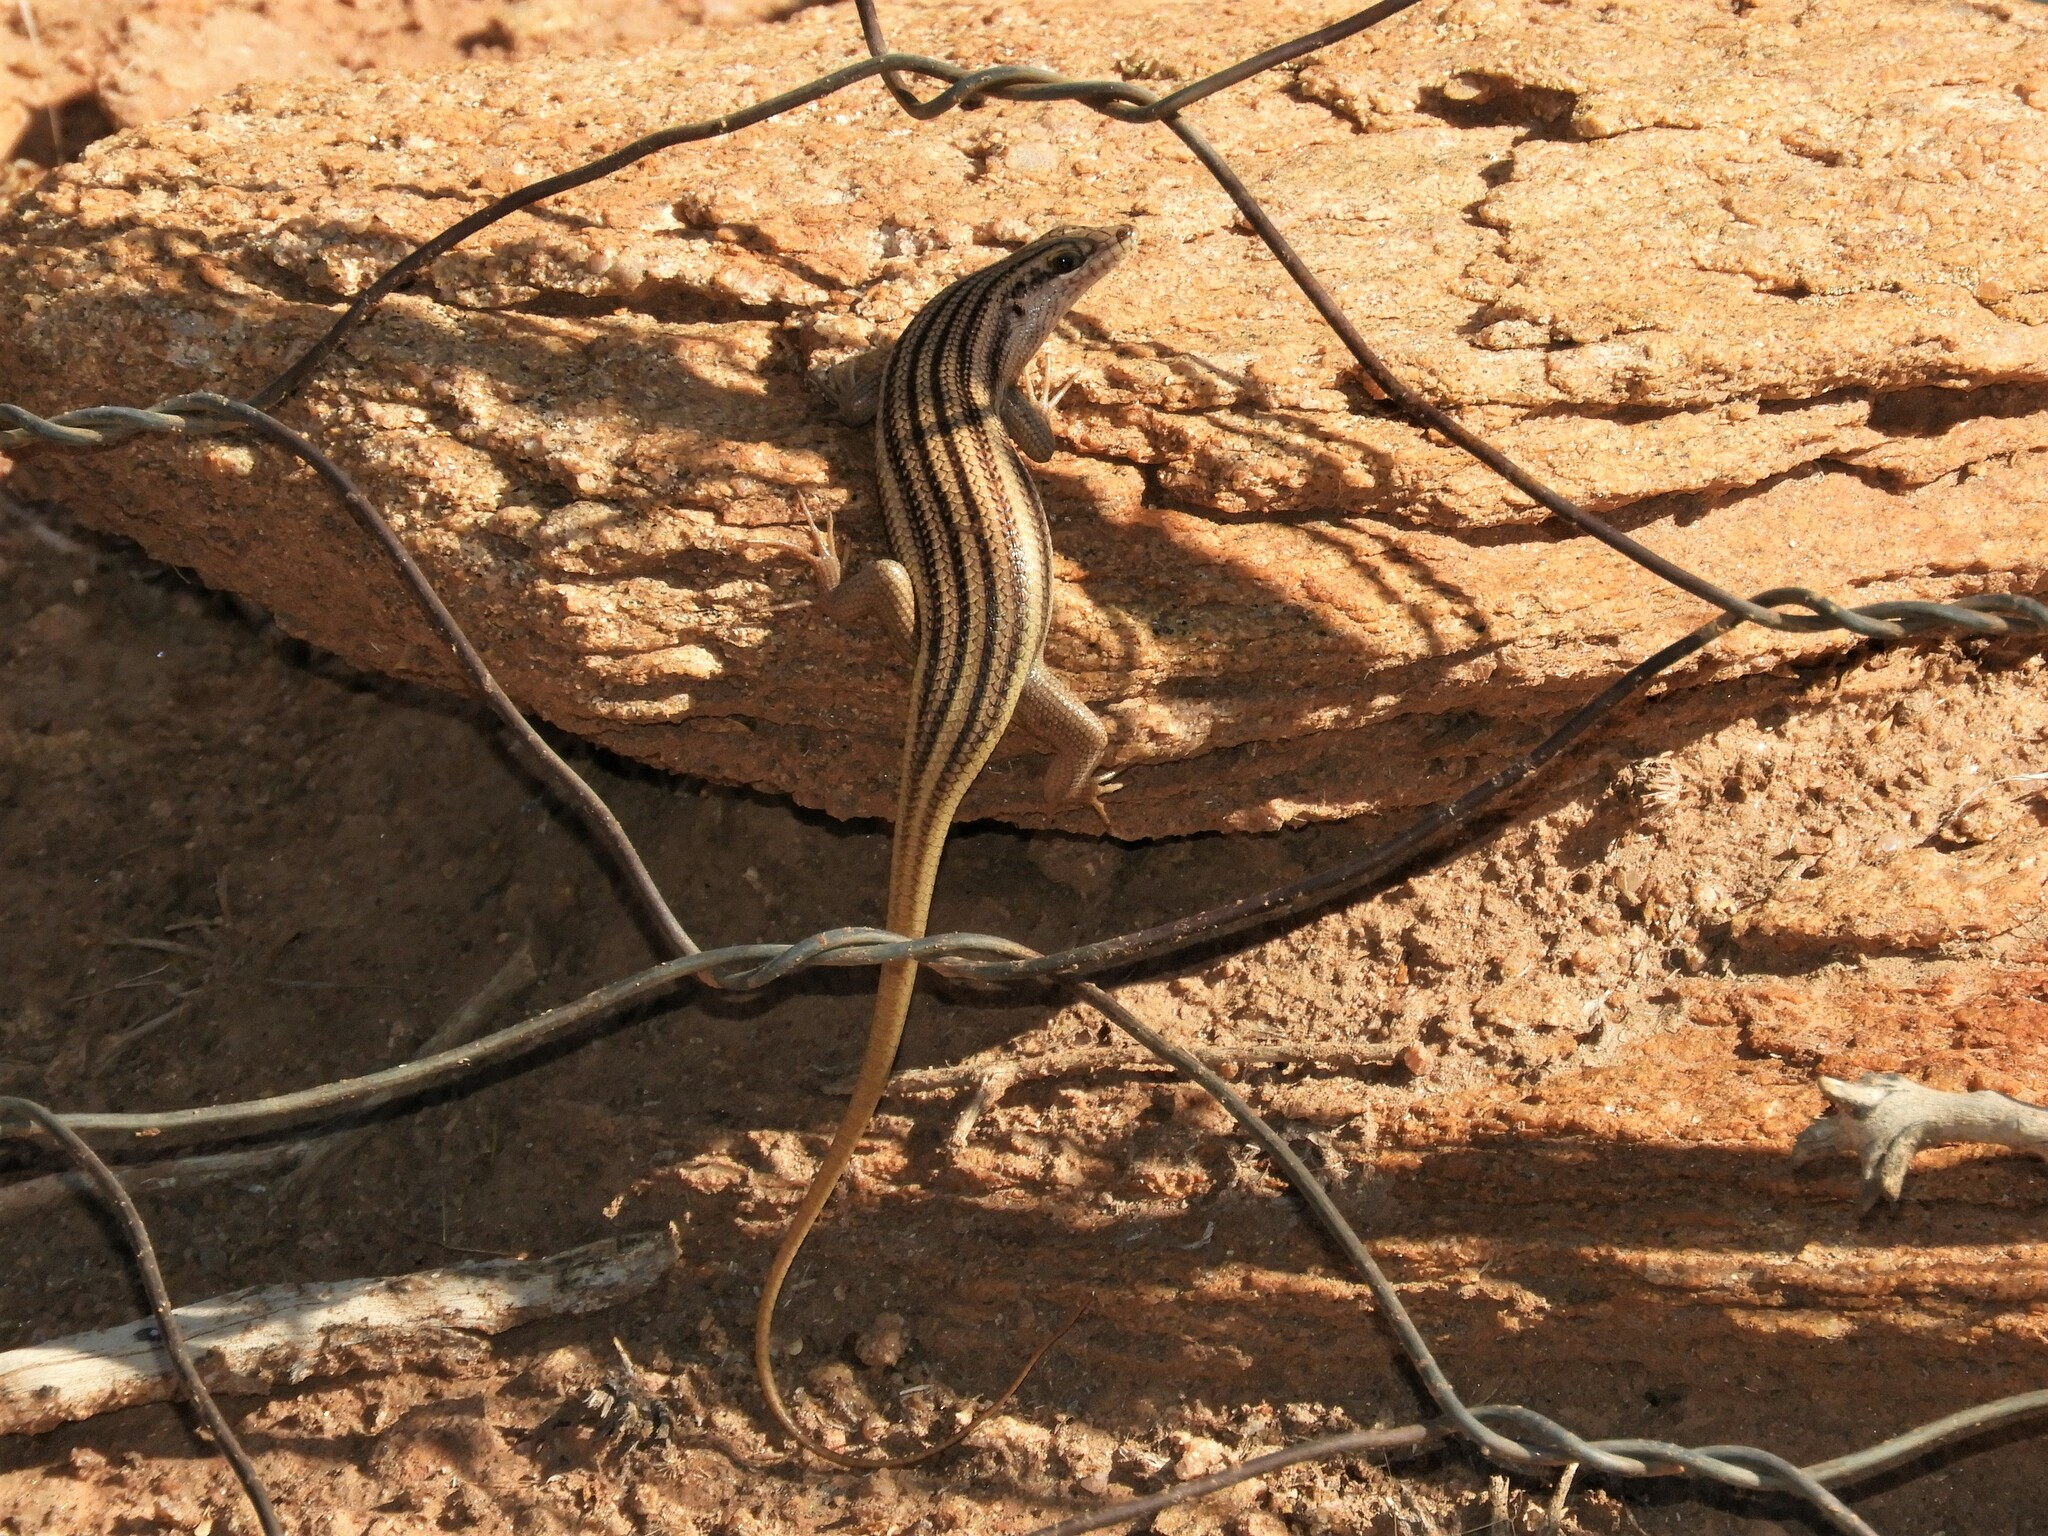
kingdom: Animalia
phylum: Chordata
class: Squamata
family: Scincidae
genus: Trachylepis
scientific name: Trachylepis sulcata
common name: Western rock skink
